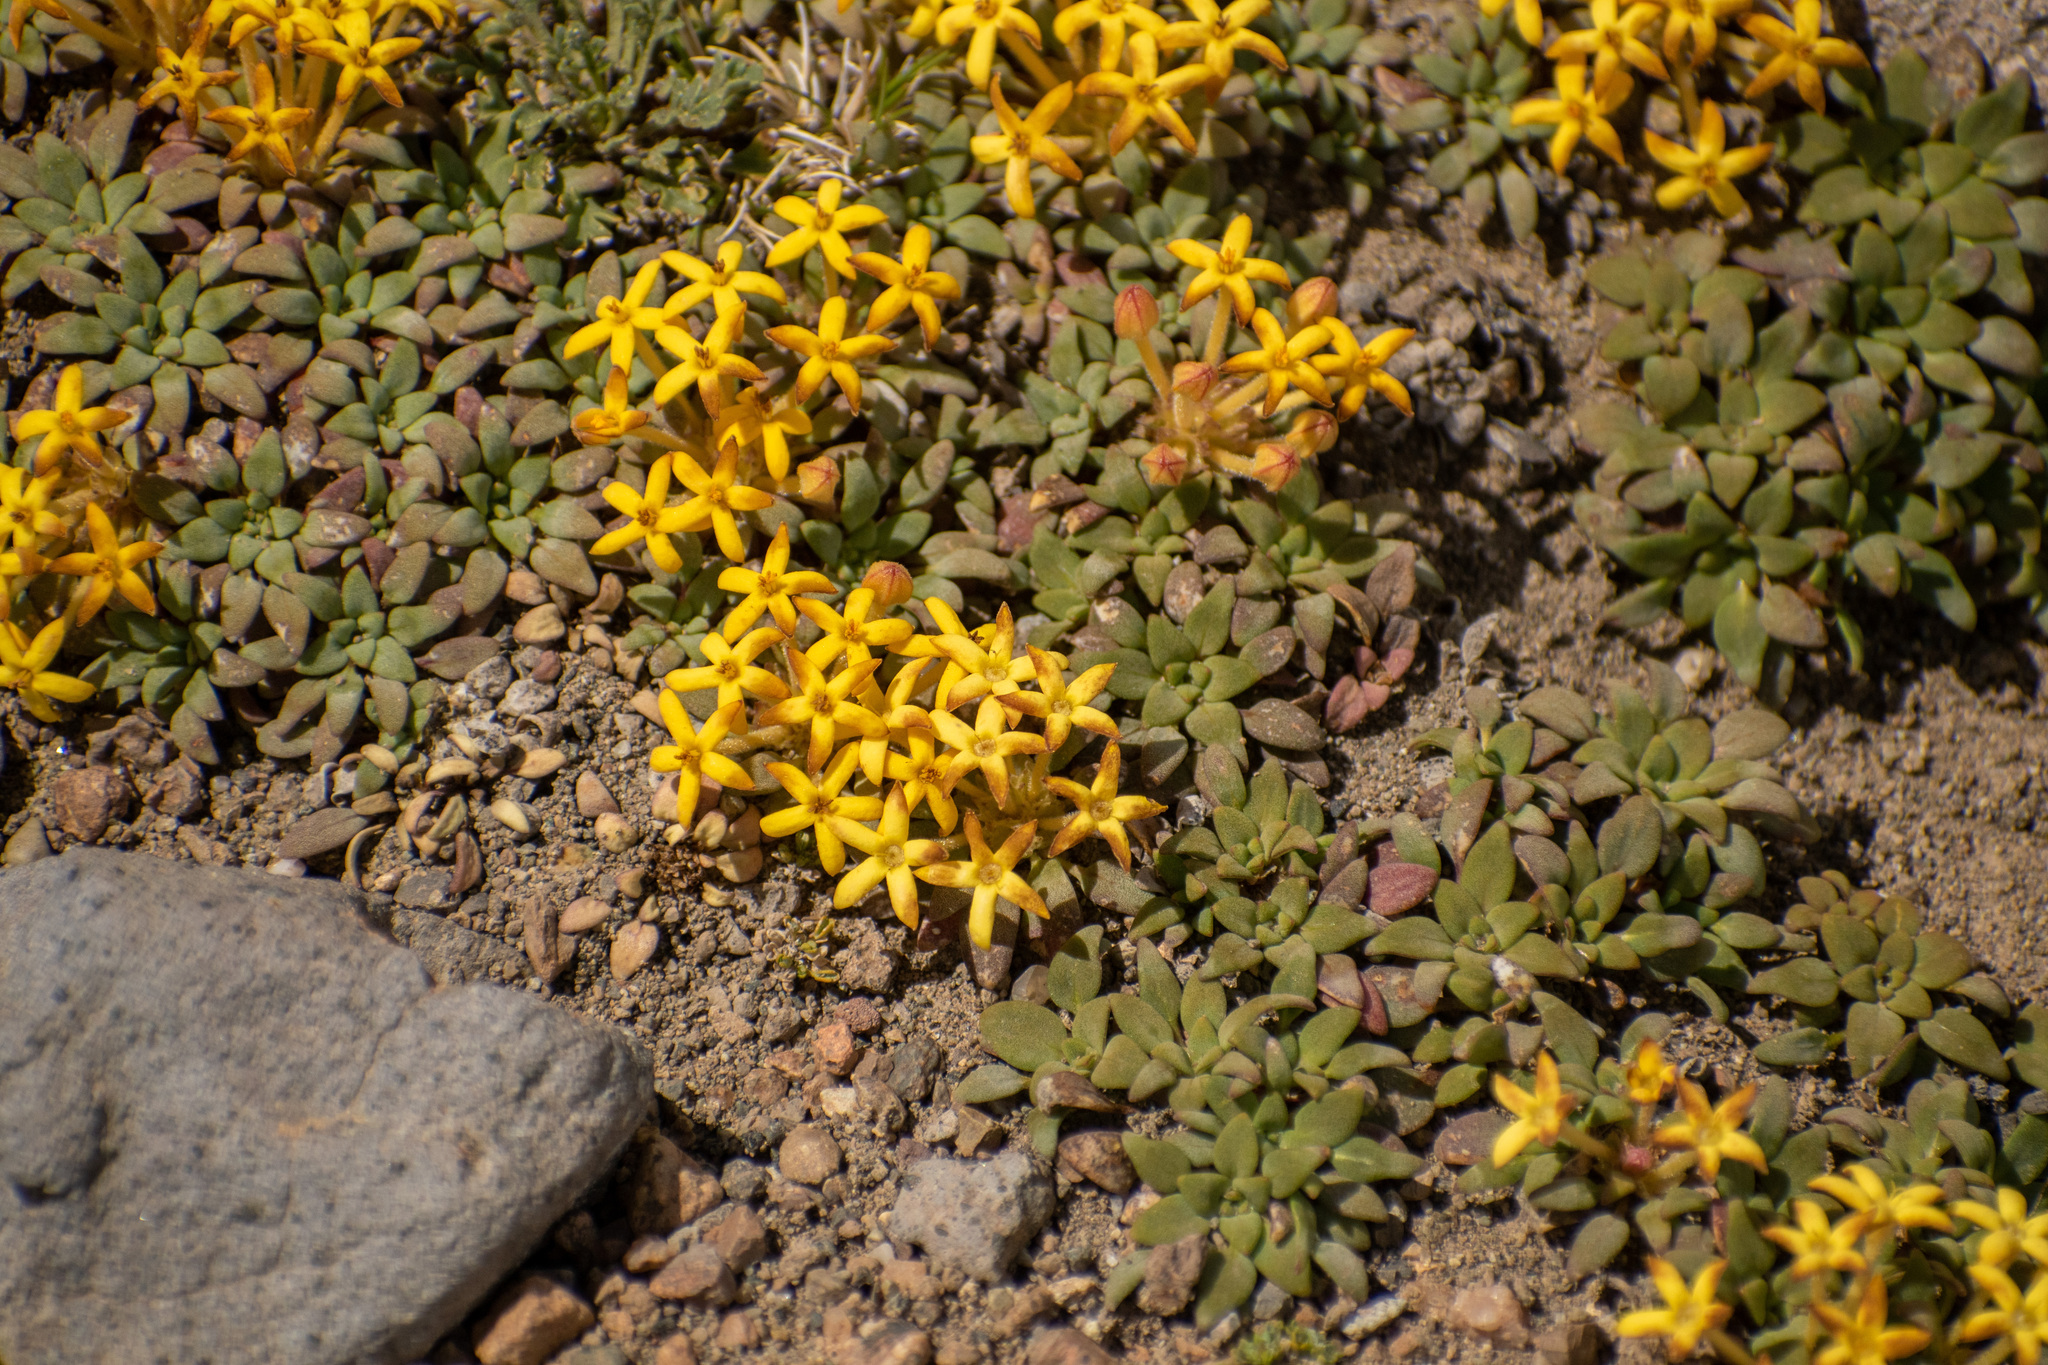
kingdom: Plantae
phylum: Tracheophyta
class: Magnoliopsida
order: Gentianales
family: Rubiaceae
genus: Oreopolus
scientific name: Oreopolus glacialis
